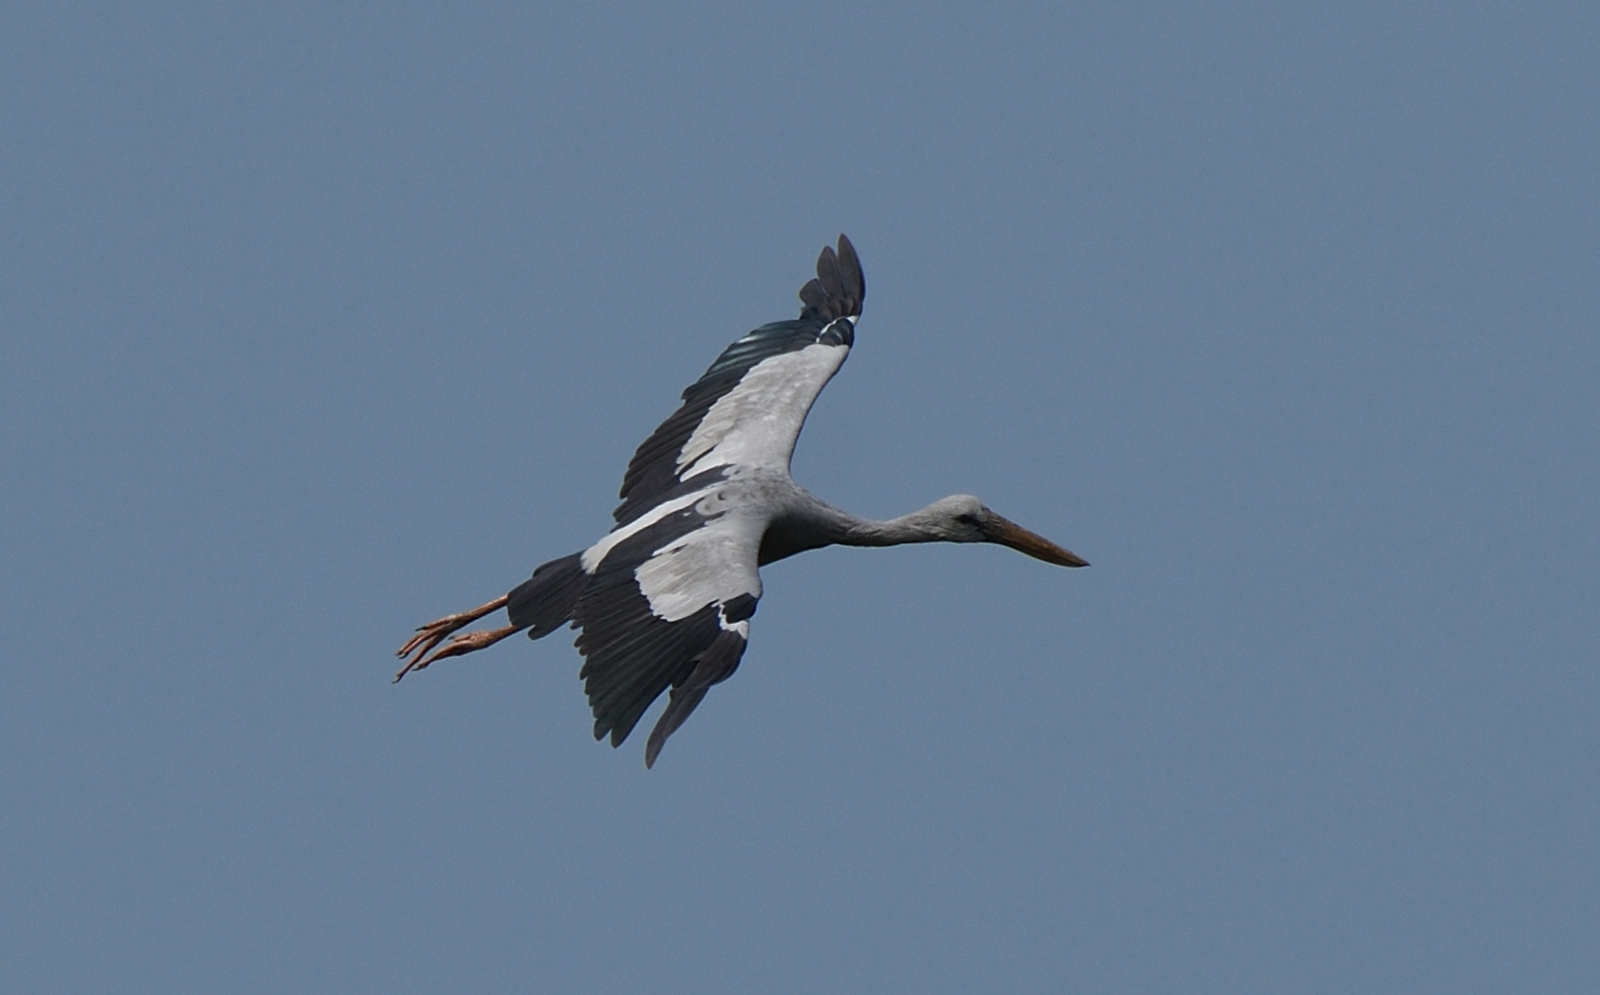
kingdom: Animalia
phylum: Chordata
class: Aves
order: Ciconiiformes
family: Ciconiidae
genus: Anastomus
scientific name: Anastomus oscitans
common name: Asian openbill
